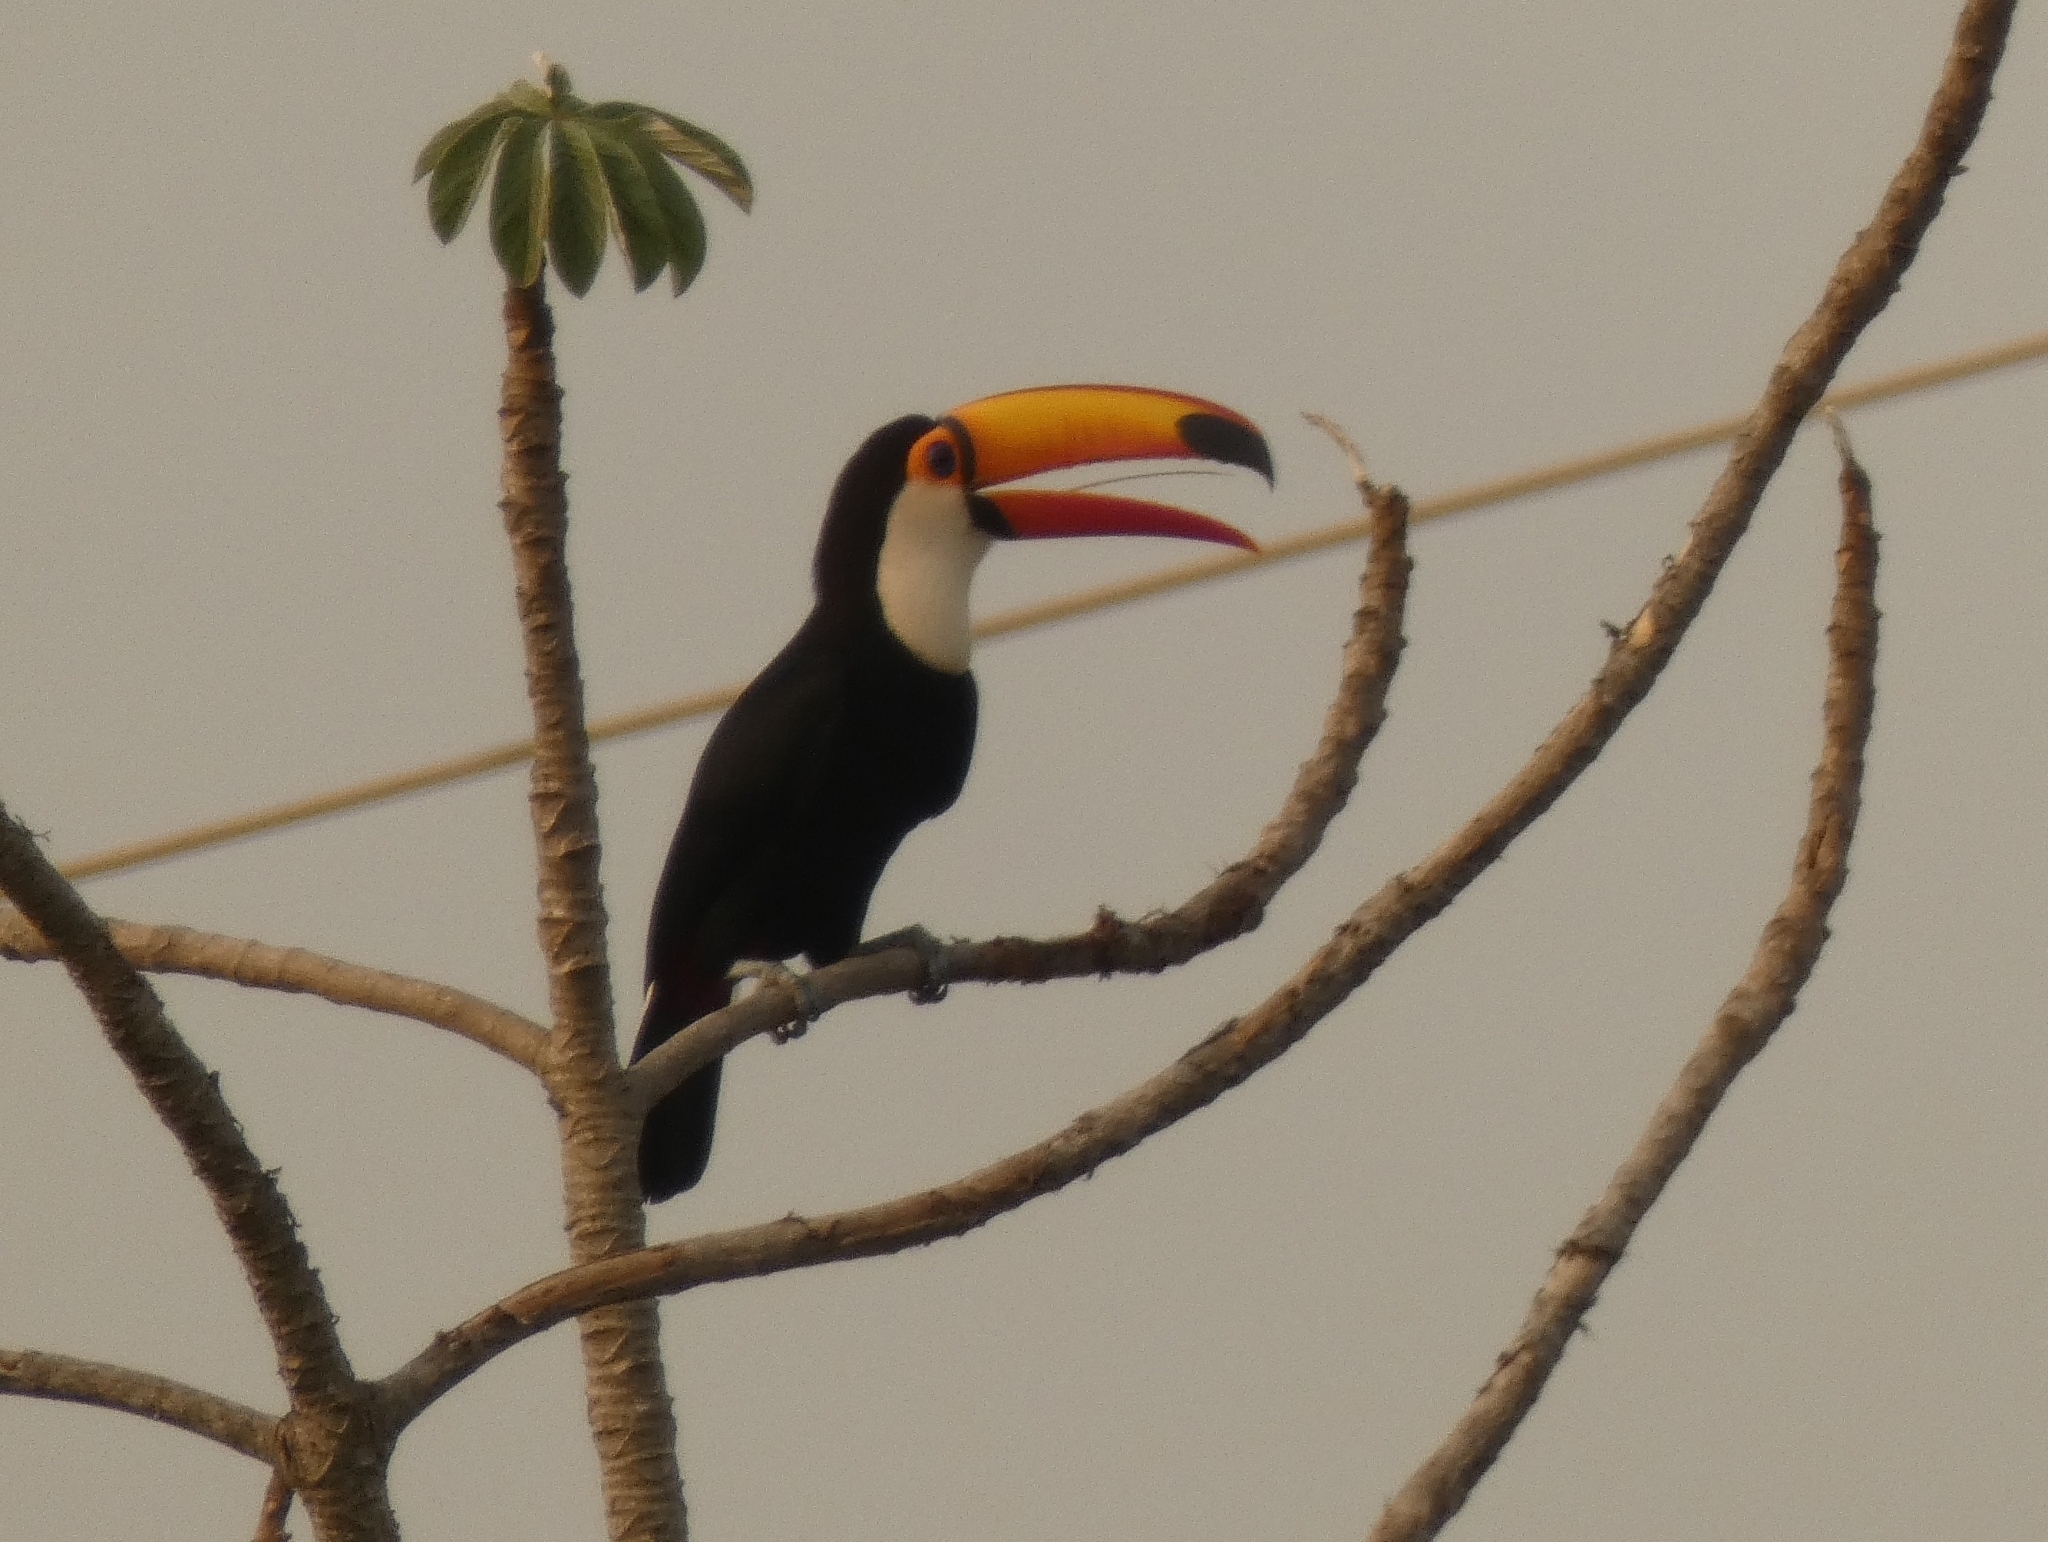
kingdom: Animalia
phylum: Chordata
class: Aves
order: Piciformes
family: Ramphastidae
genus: Ramphastos
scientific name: Ramphastos toco
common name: Toco toucan
